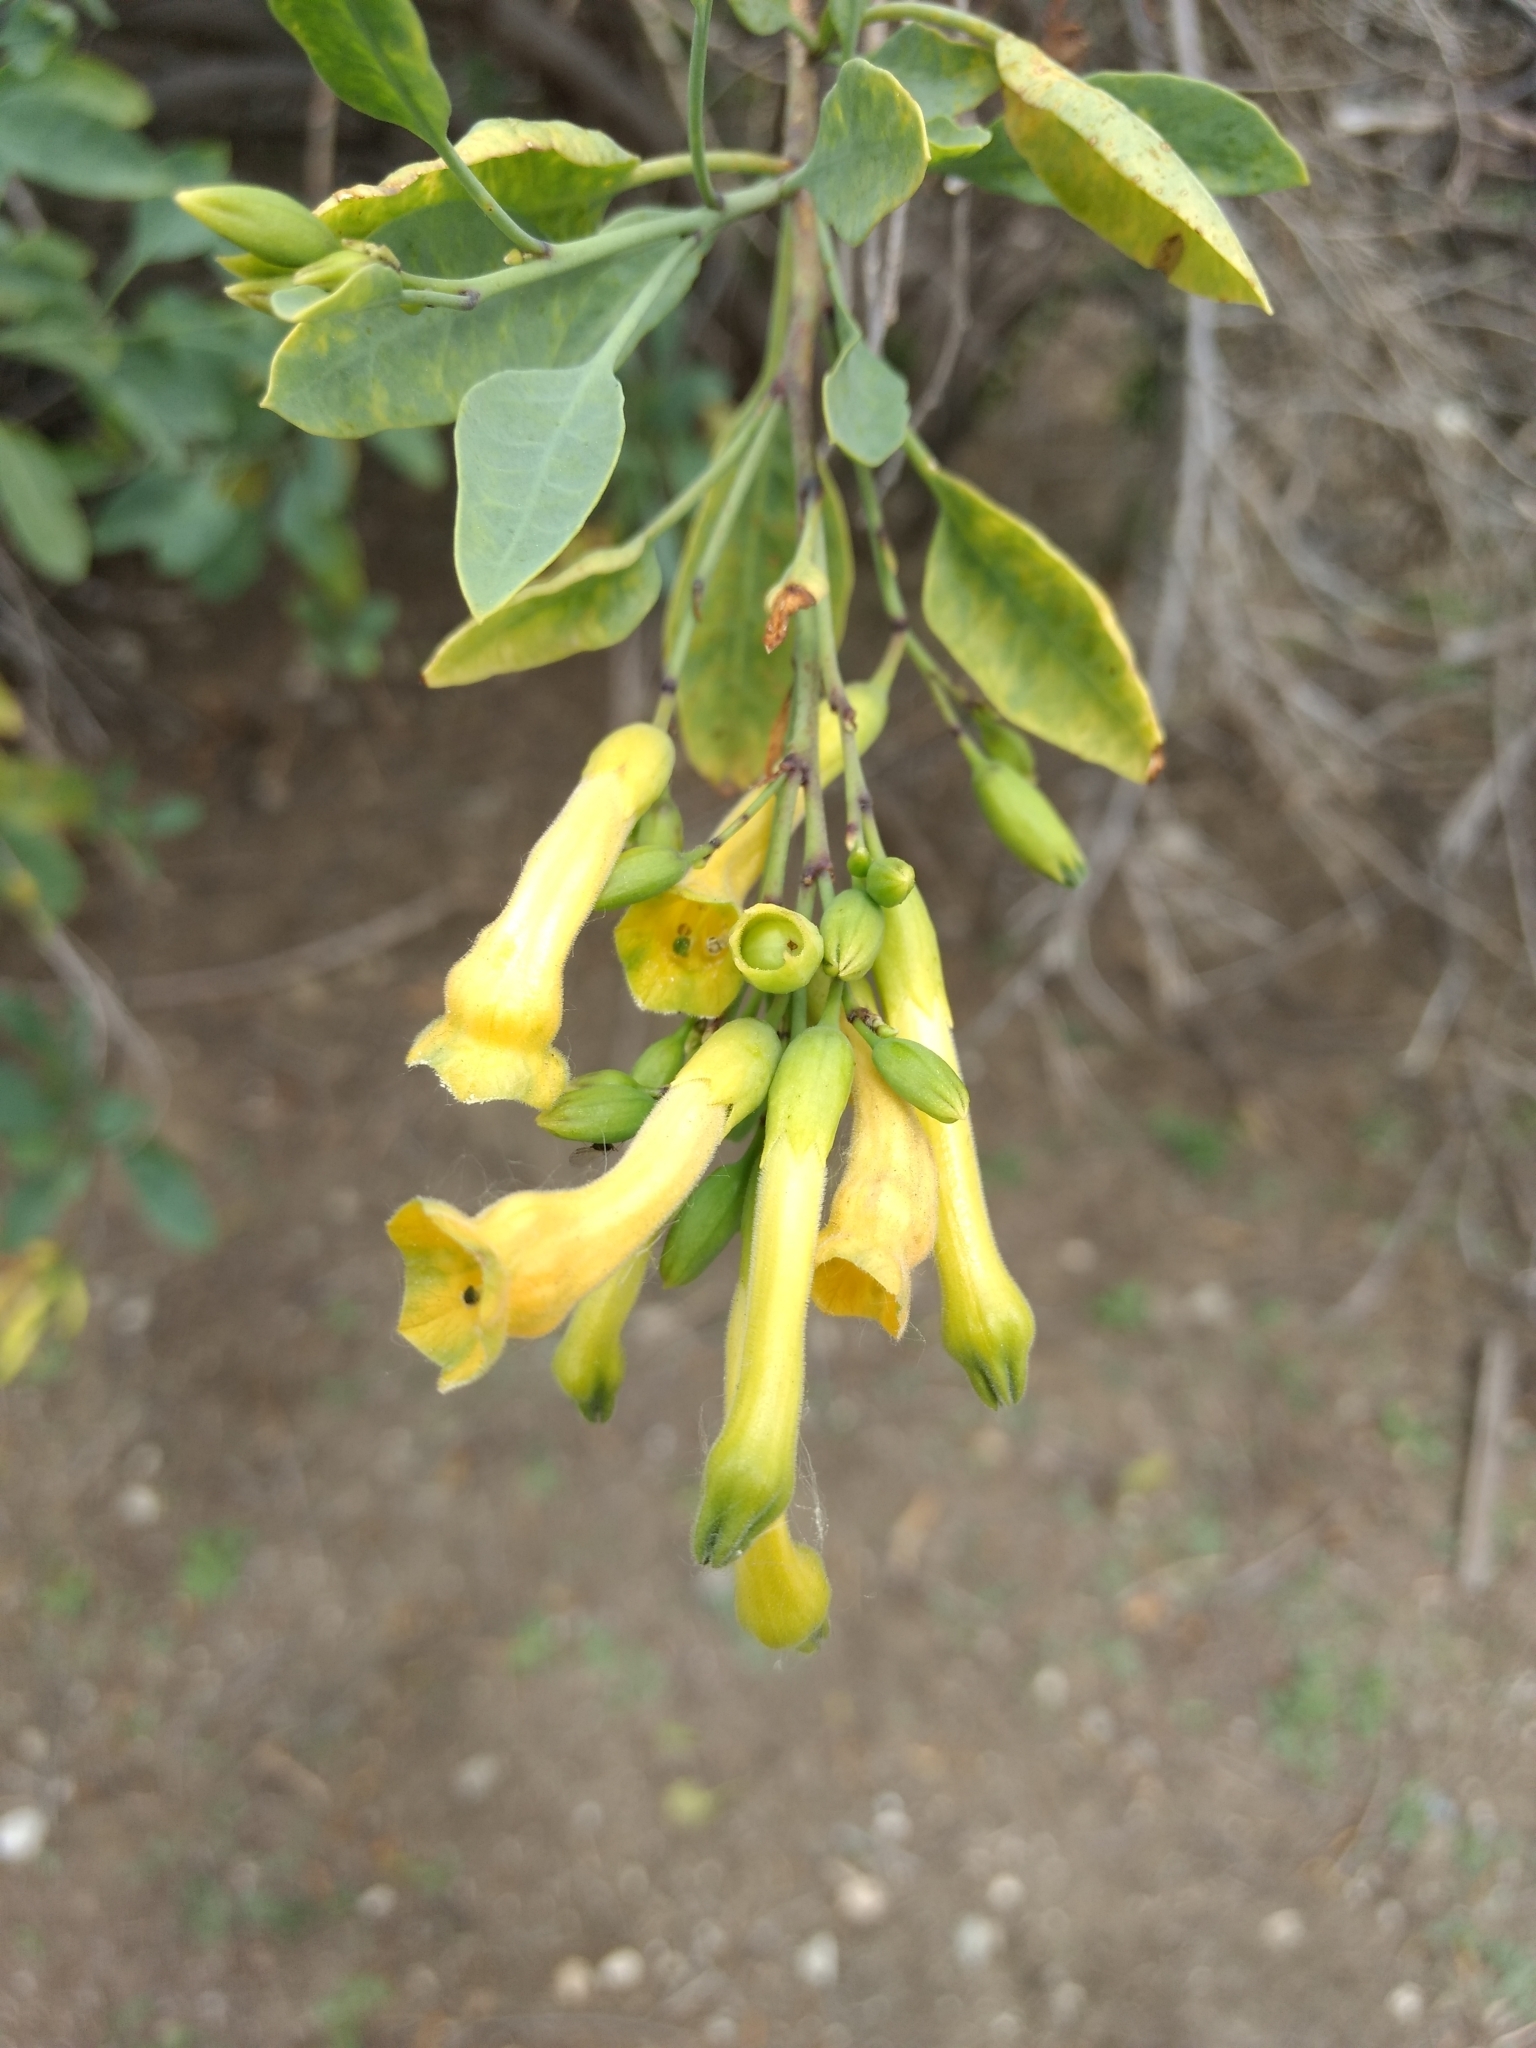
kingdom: Plantae
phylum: Tracheophyta
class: Magnoliopsida
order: Solanales
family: Solanaceae
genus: Nicotiana
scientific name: Nicotiana glauca
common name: Tree tobacco
